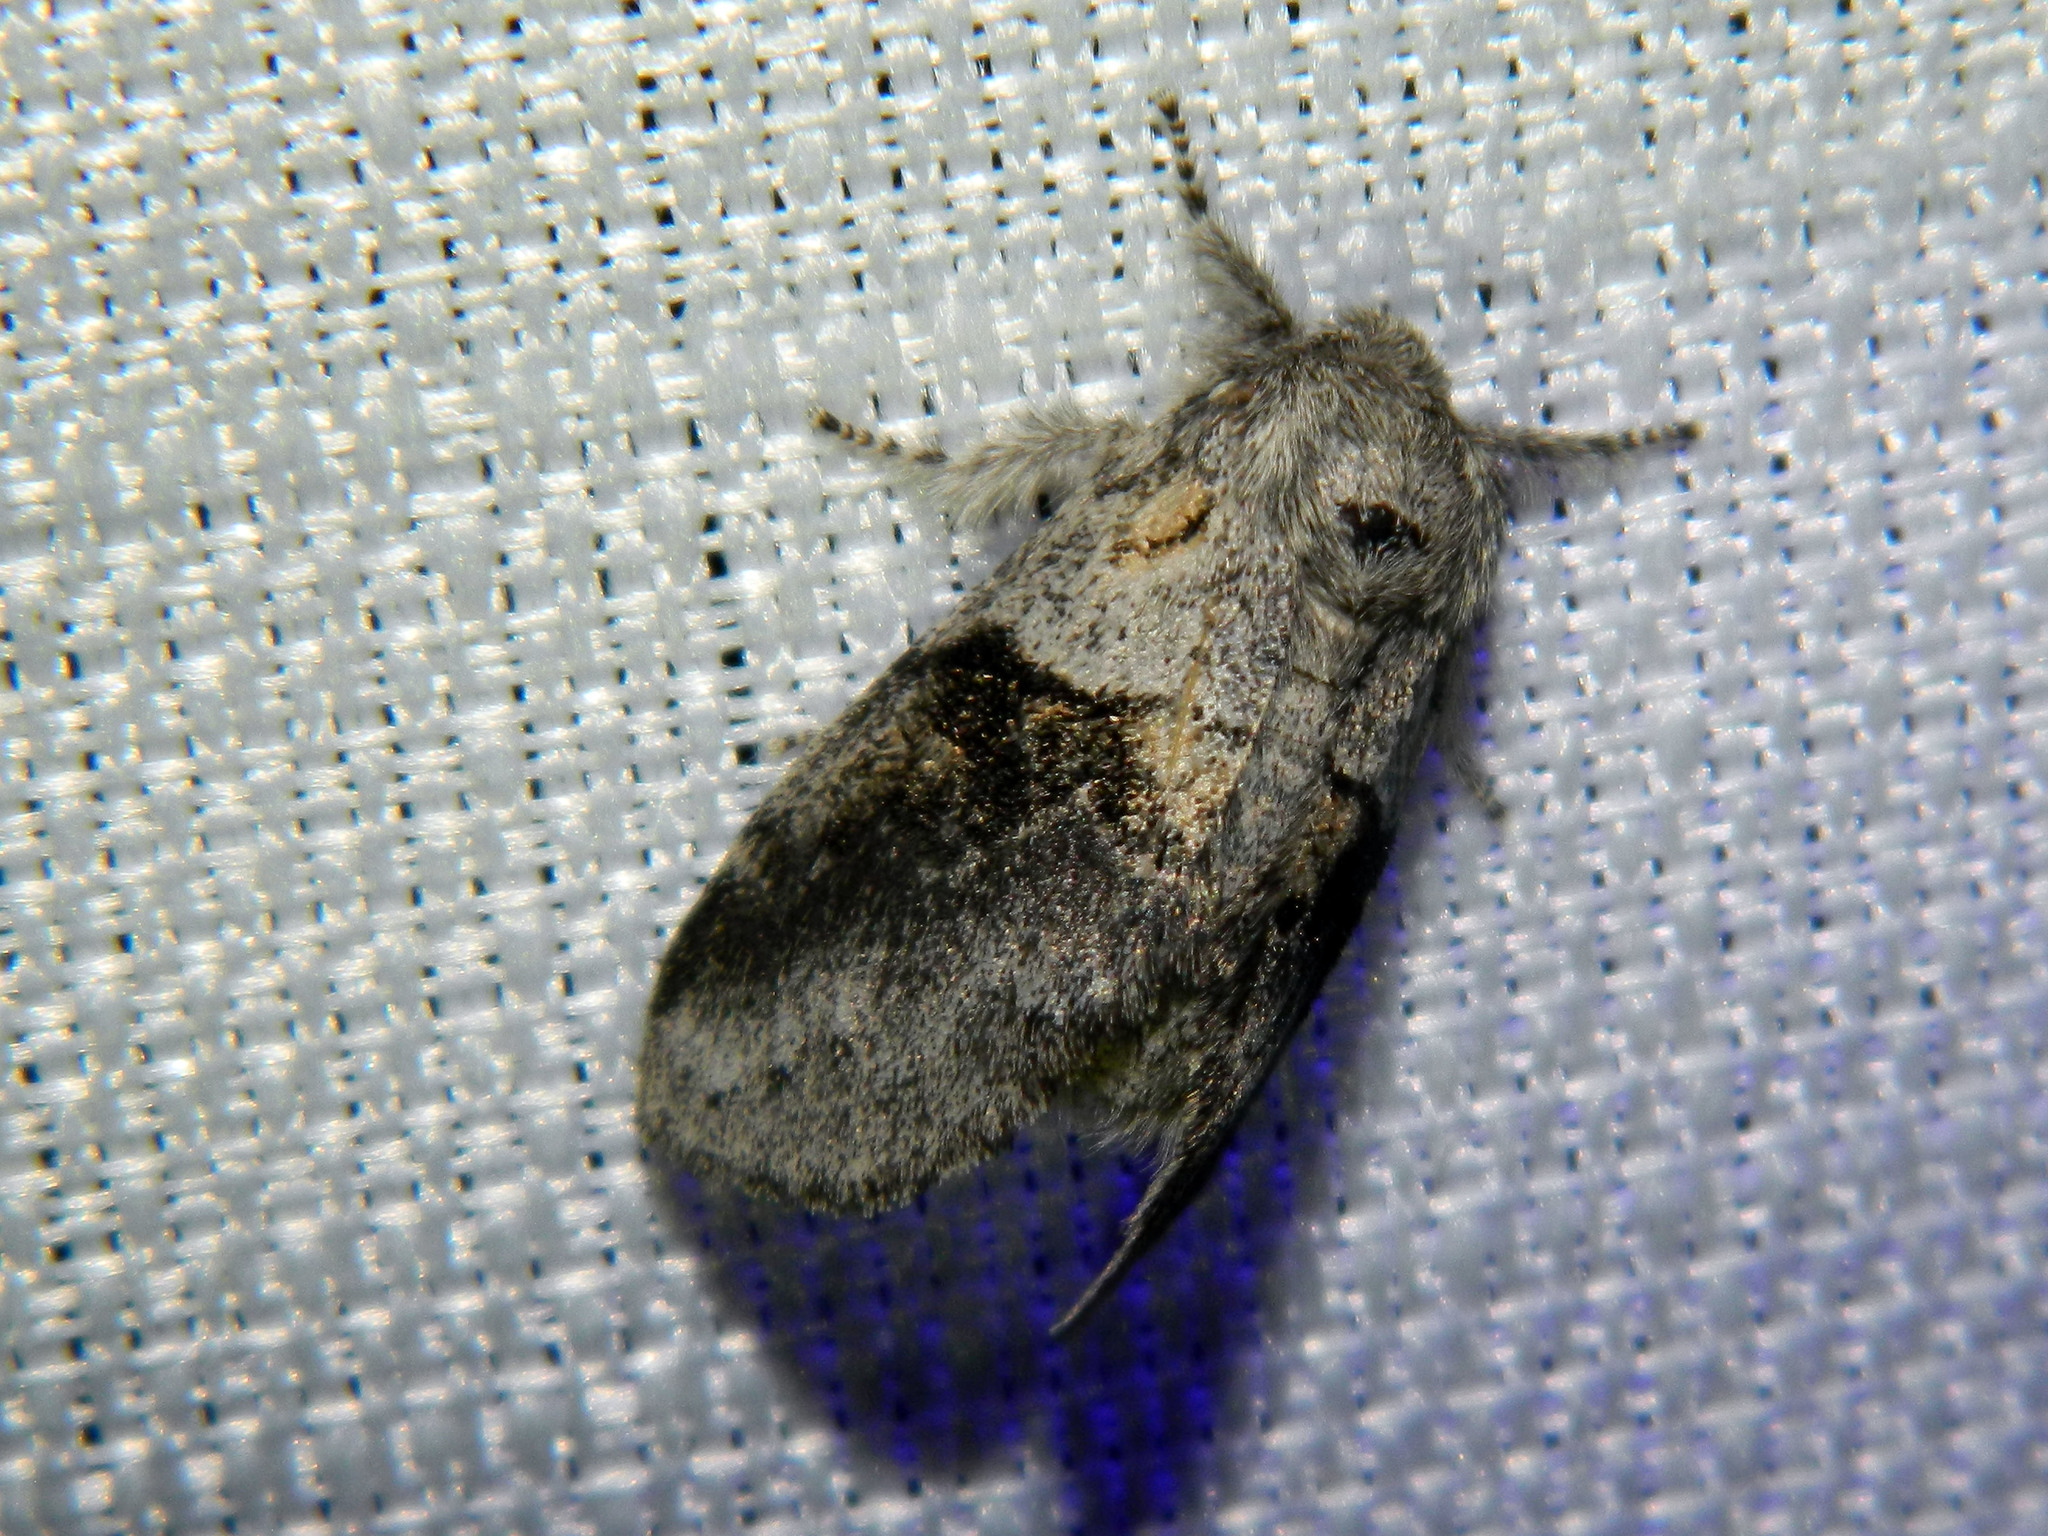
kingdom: Animalia
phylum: Arthropoda
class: Insecta
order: Lepidoptera
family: Notodontidae
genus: Gluphisia
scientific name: Gluphisia septentrionis
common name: Common gluphisia
